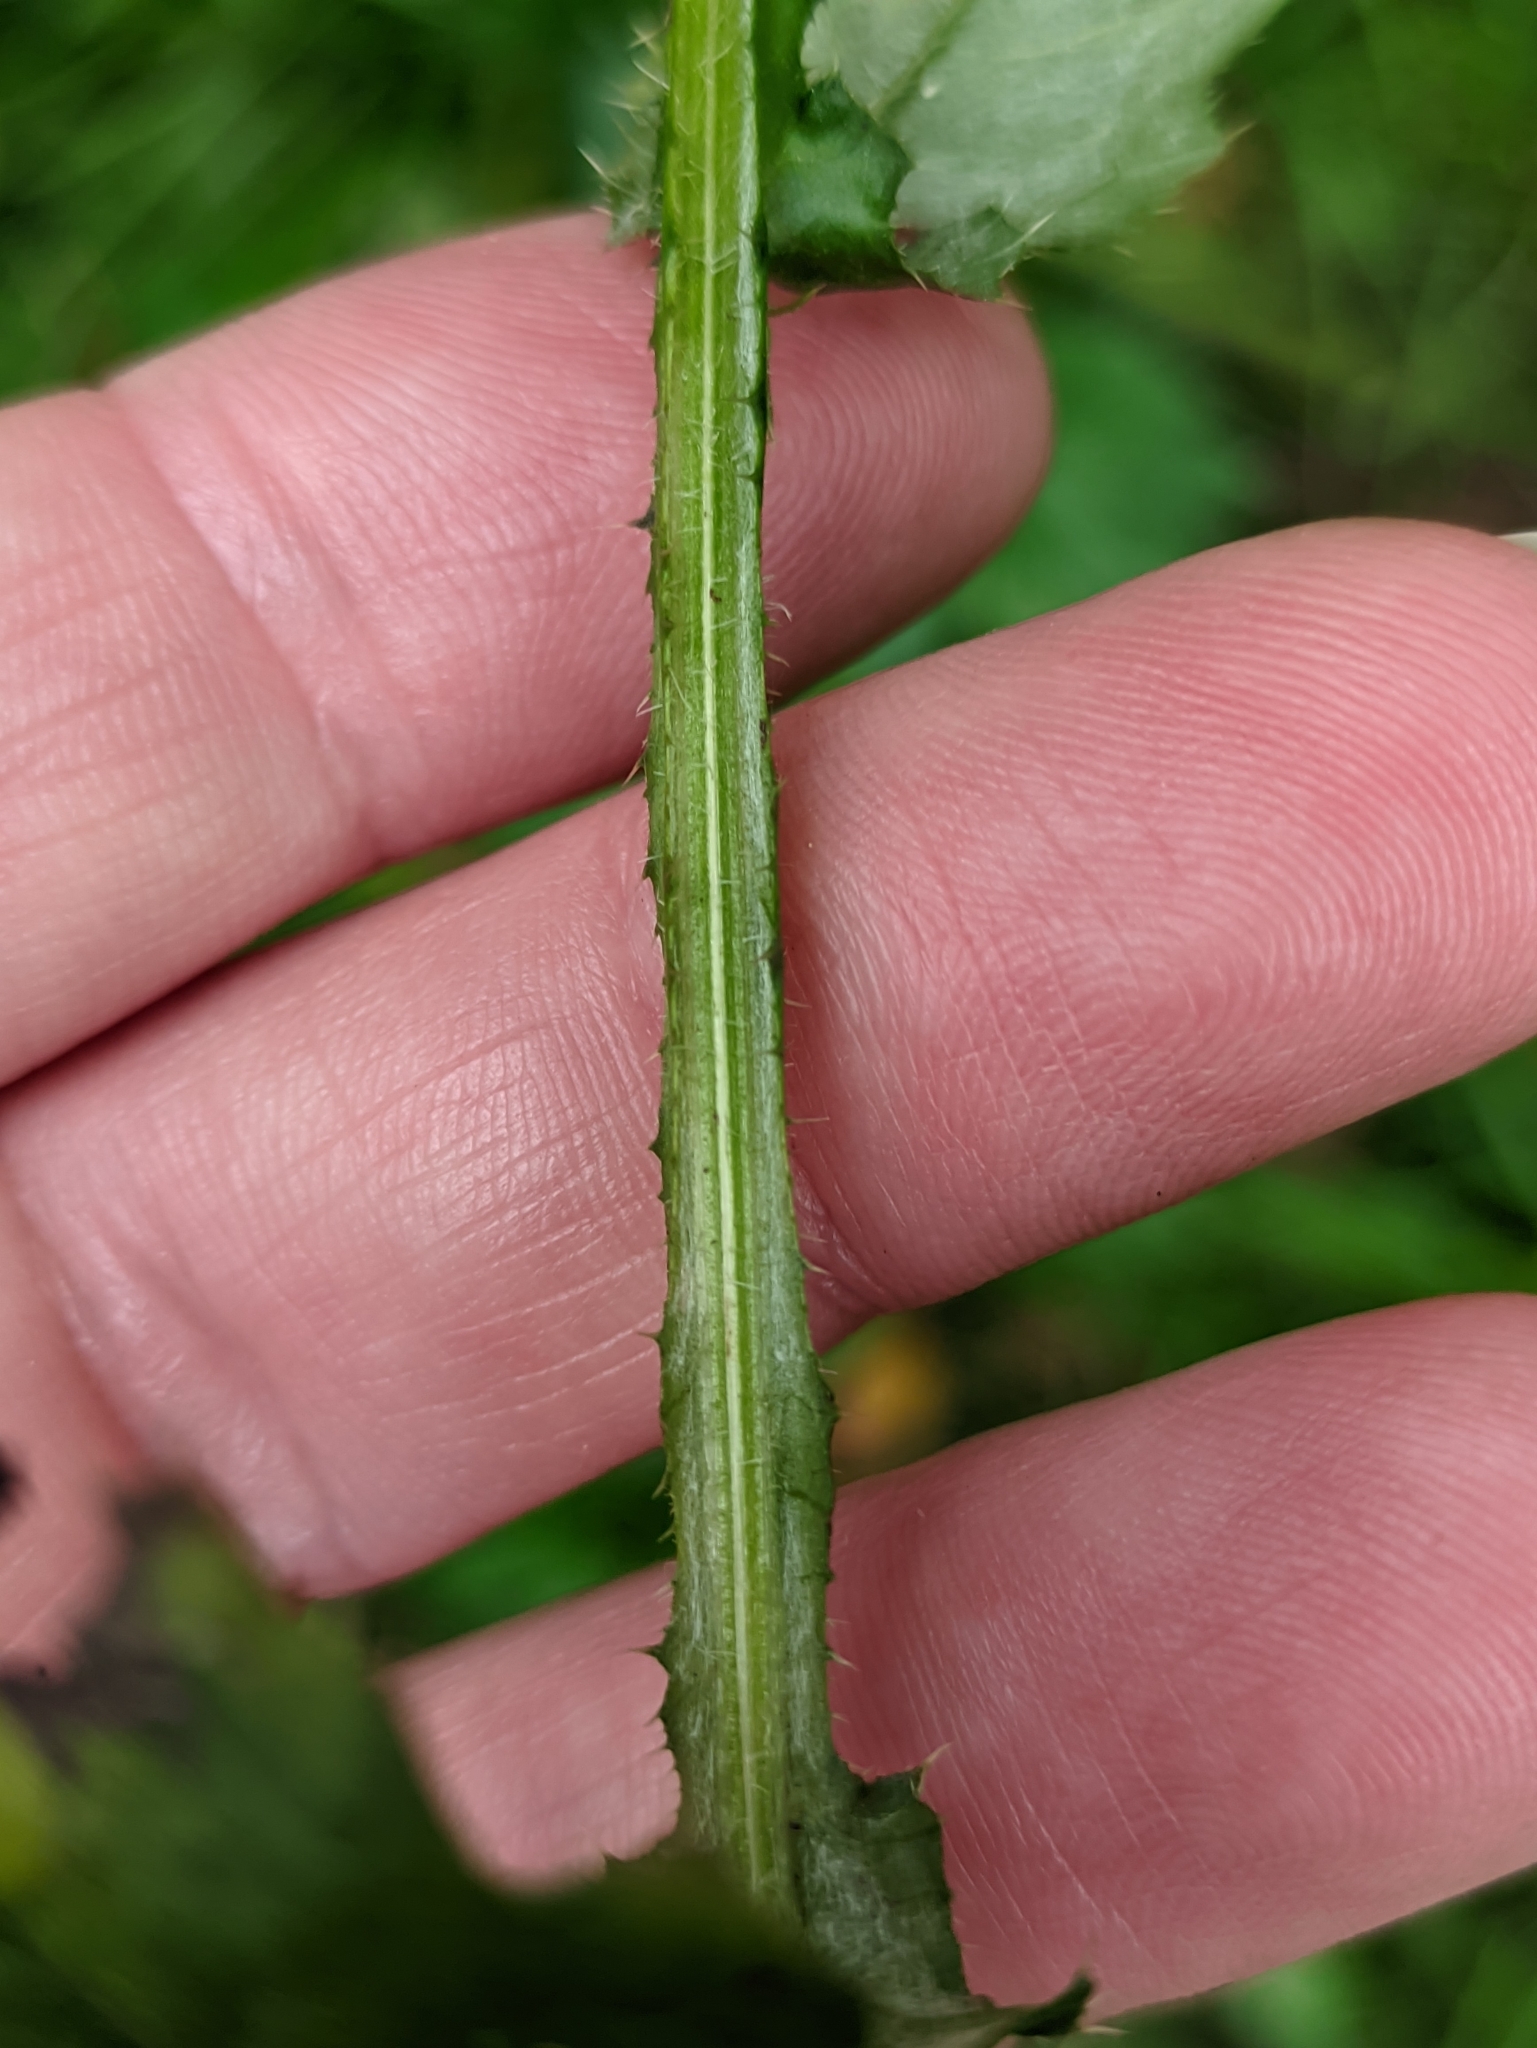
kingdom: Plantae
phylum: Tracheophyta
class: Magnoliopsida
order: Asterales
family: Asteraceae
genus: Carduus
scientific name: Carduus crispus
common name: Welted thistle
